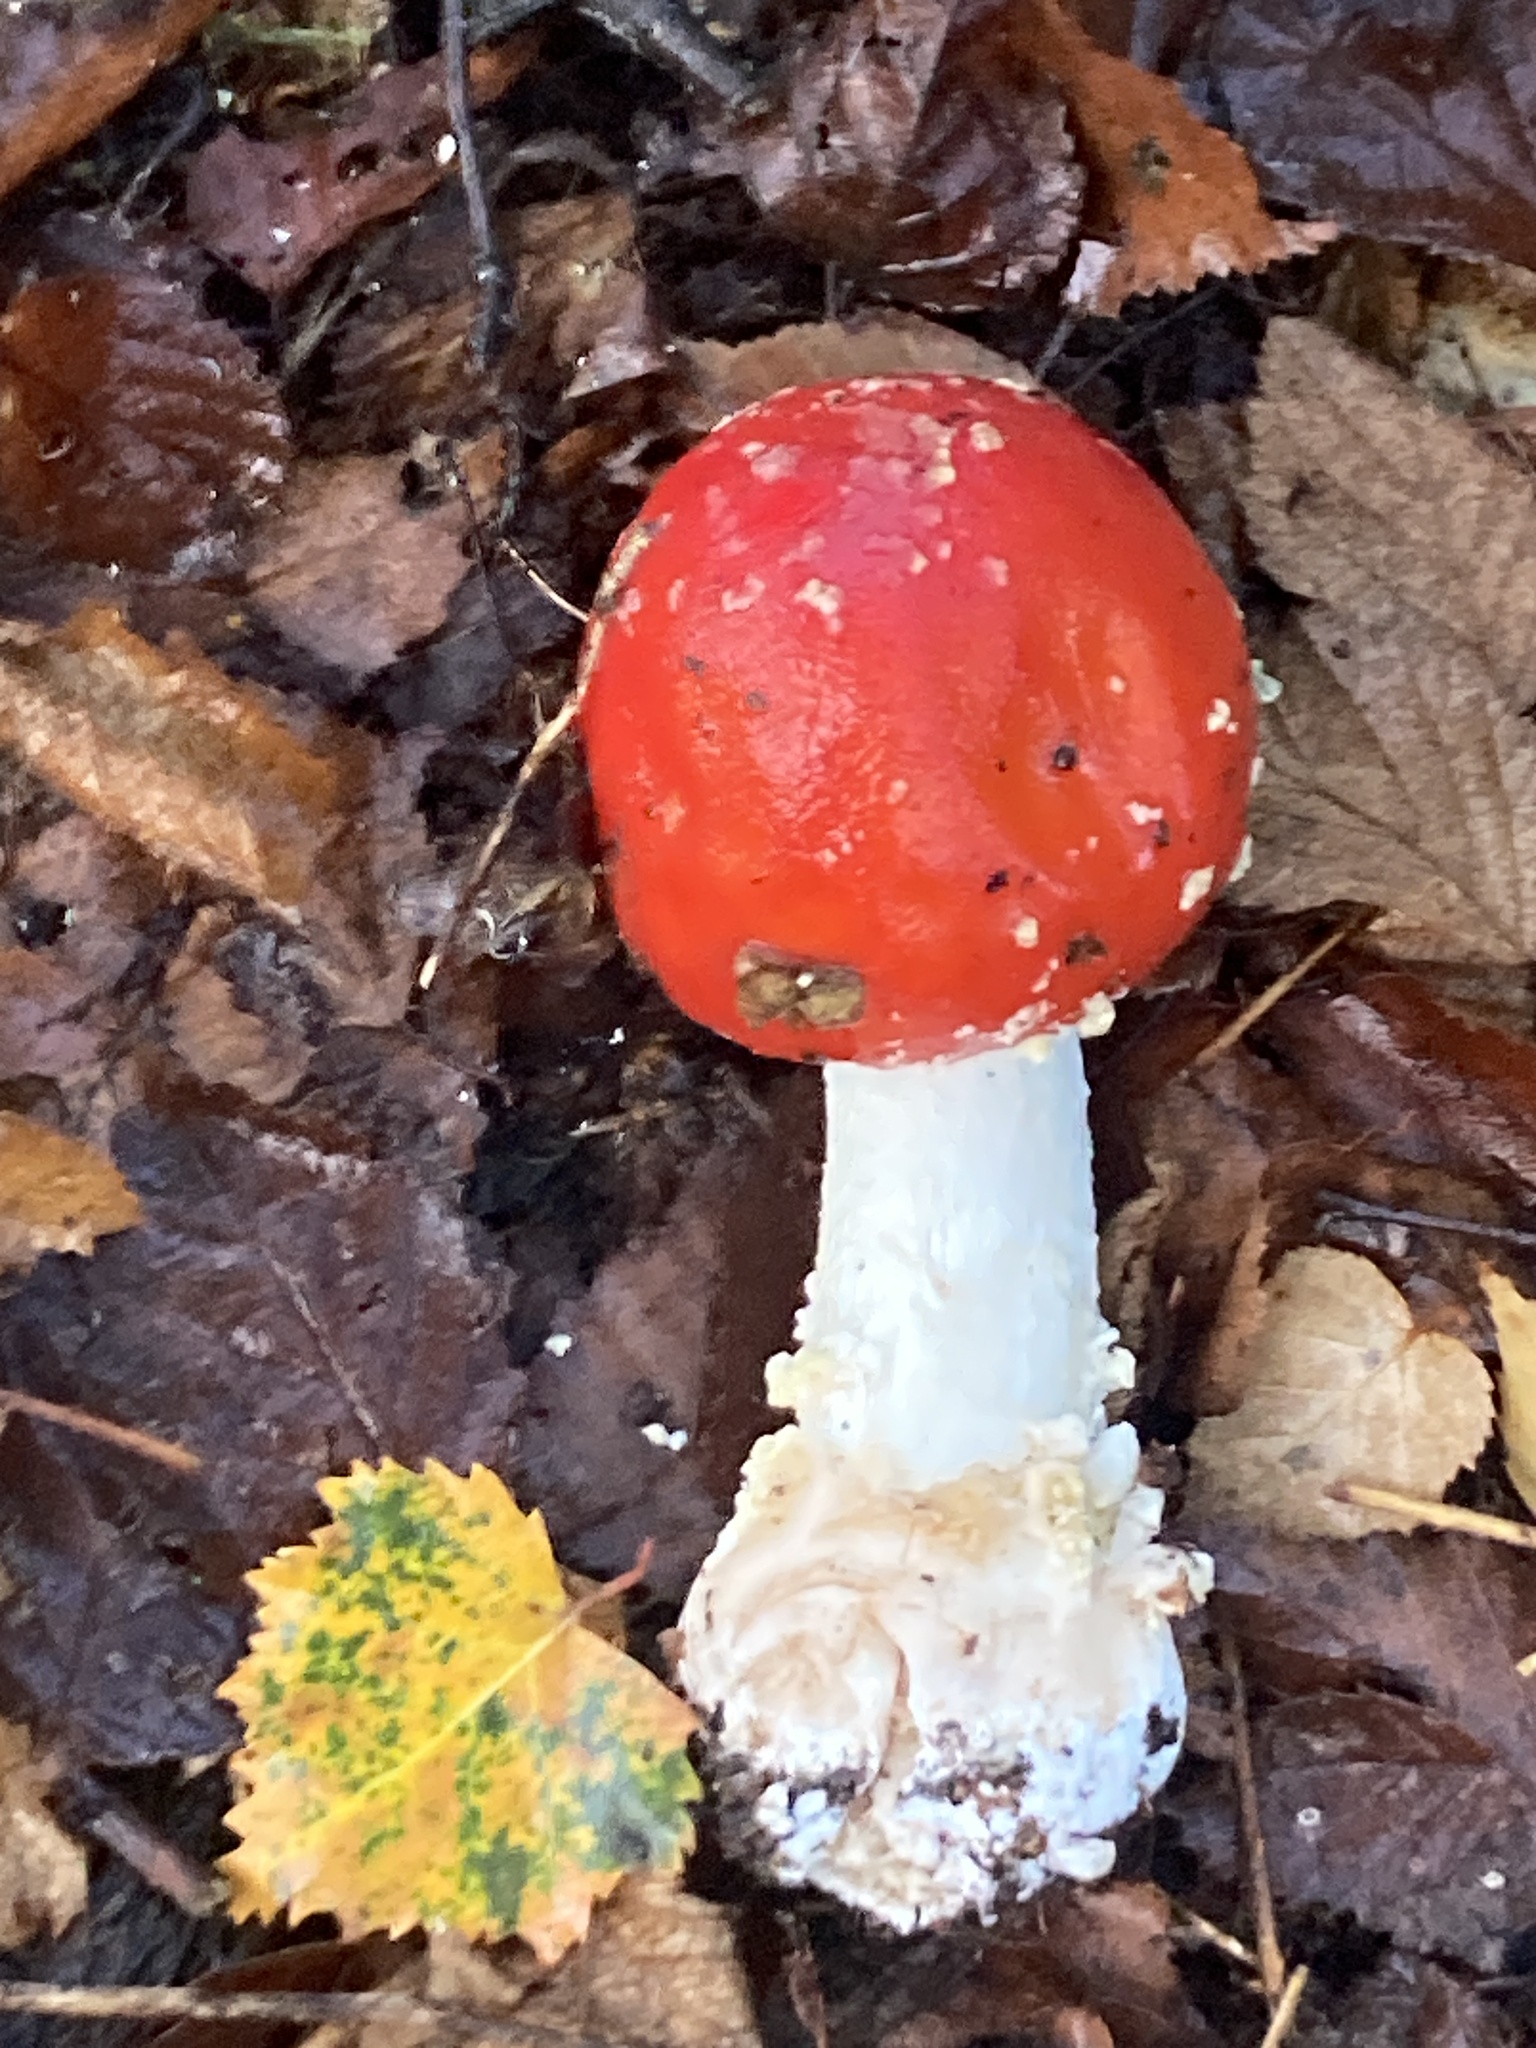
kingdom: Fungi
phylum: Basidiomycota
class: Agaricomycetes
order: Agaricales
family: Amanitaceae
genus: Amanita
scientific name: Amanita muscaria
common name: Fly agaric
